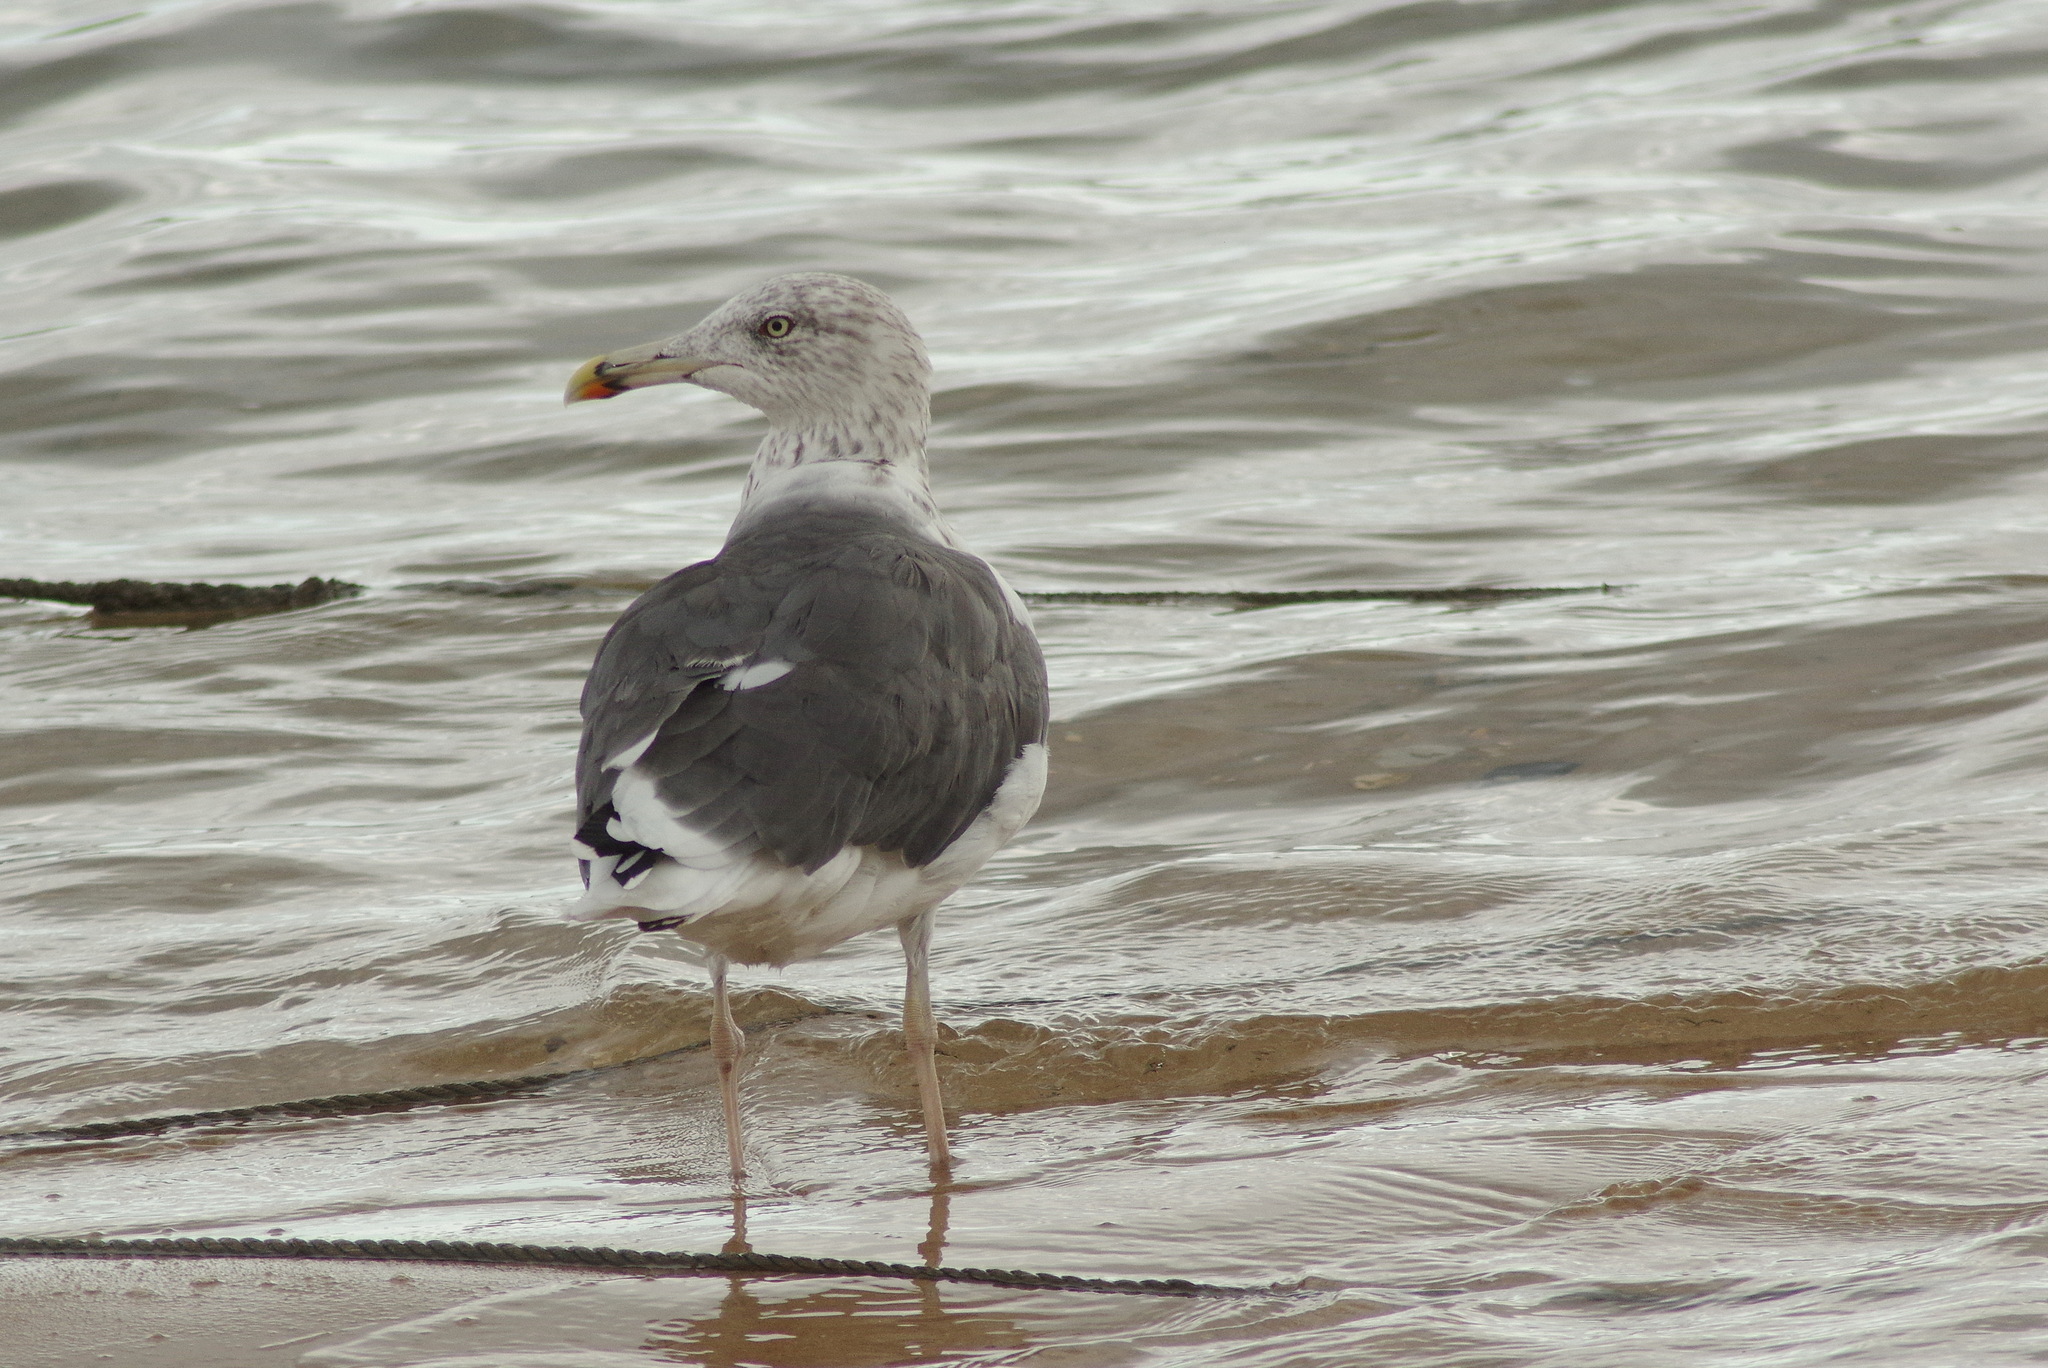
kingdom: Animalia
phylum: Chordata
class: Aves
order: Charadriiformes
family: Laridae
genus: Larus
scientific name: Larus fuscus
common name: Lesser black-backed gull
